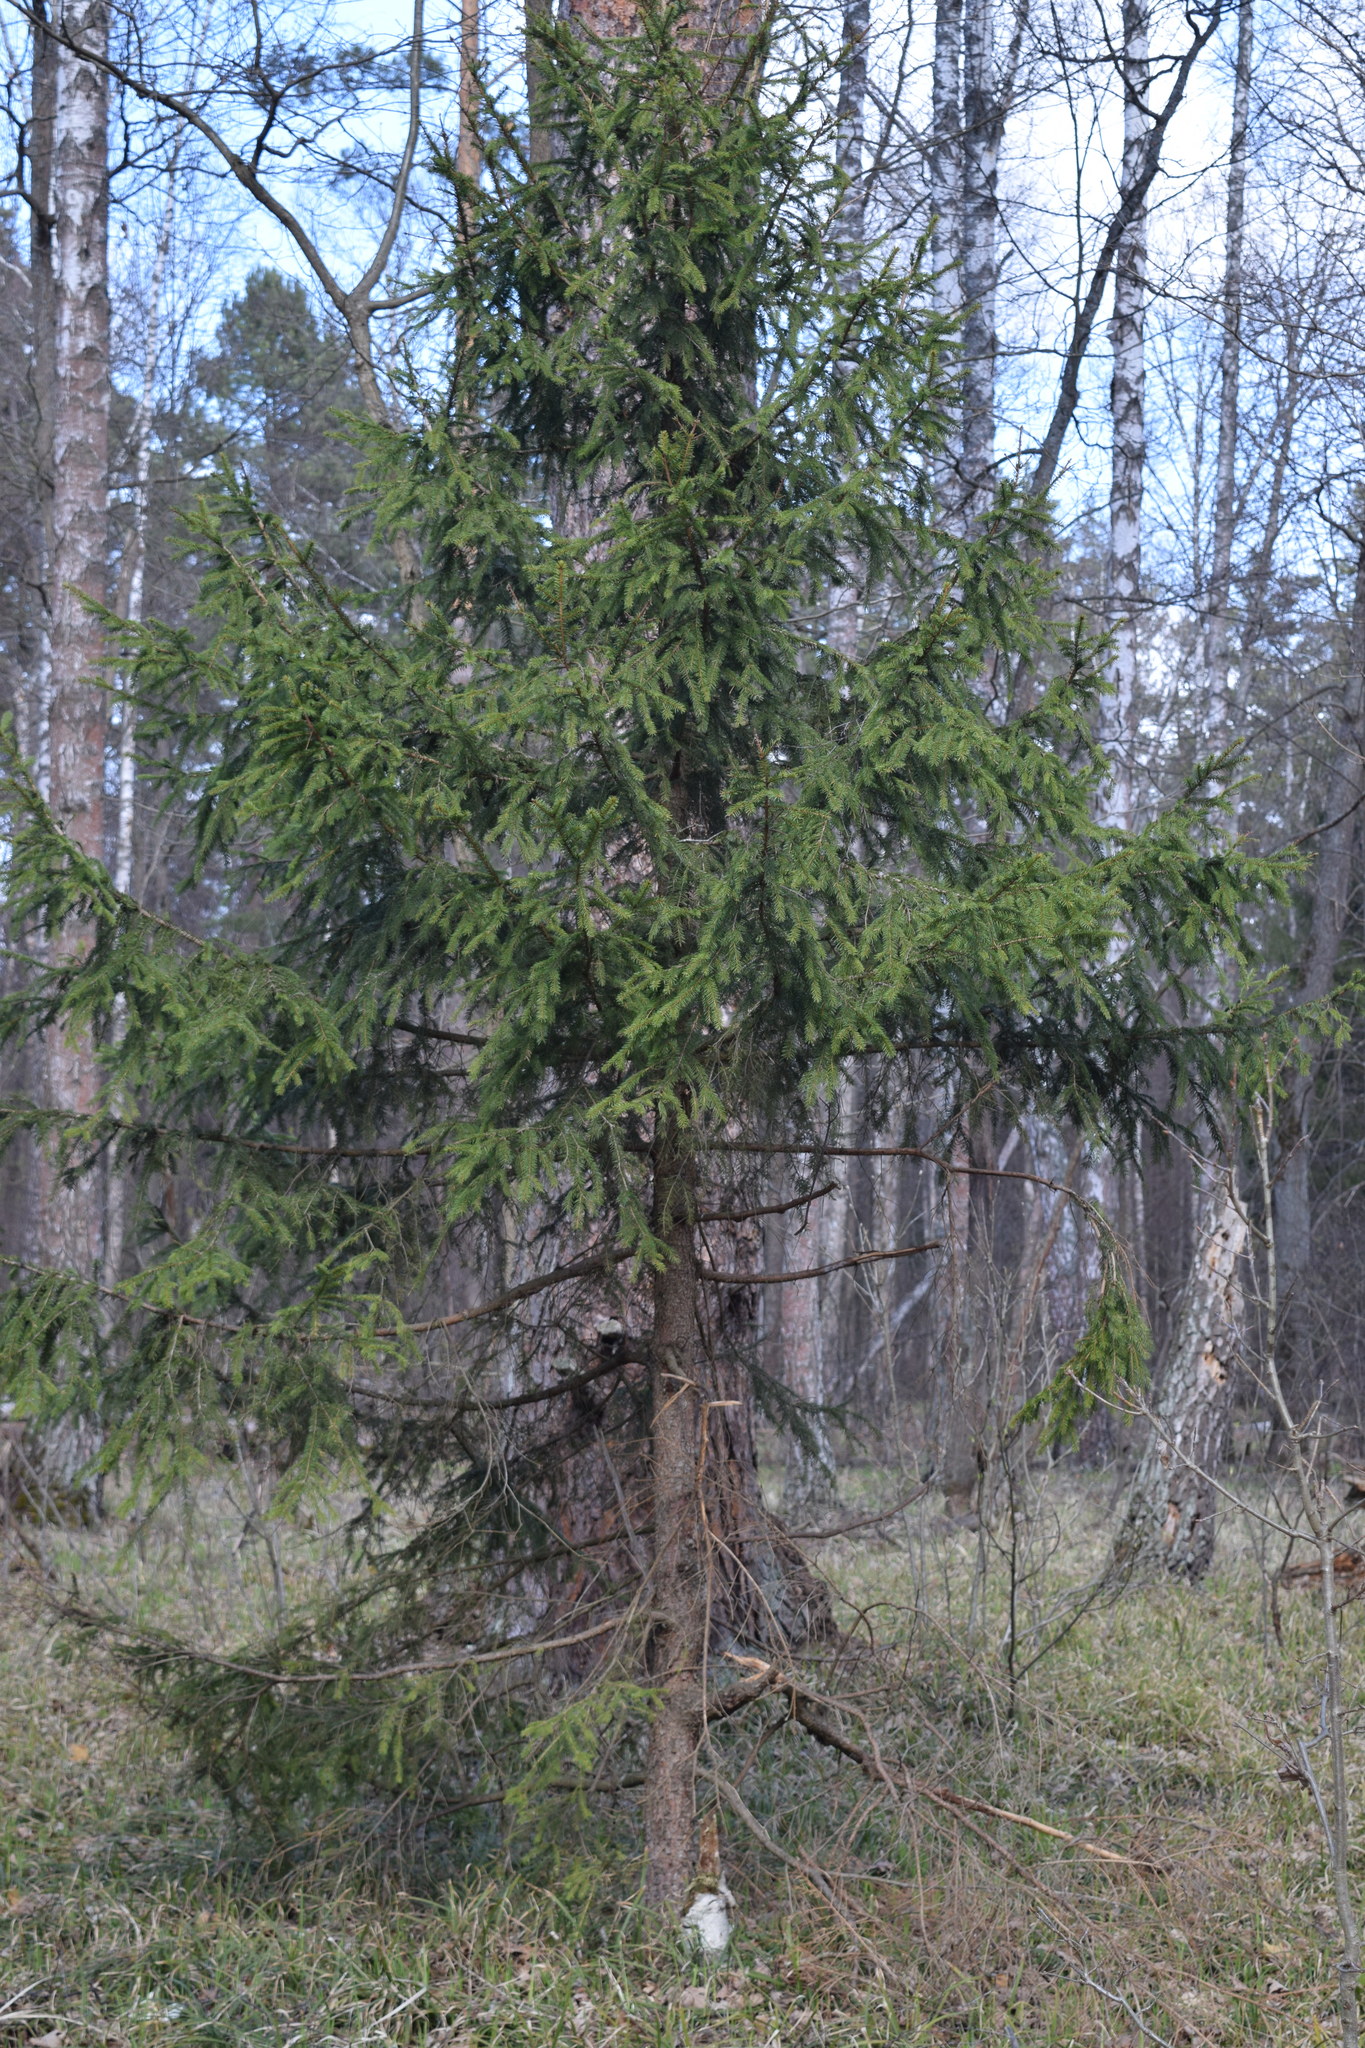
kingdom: Plantae
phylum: Tracheophyta
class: Pinopsida
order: Pinales
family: Pinaceae
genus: Picea
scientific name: Picea abies
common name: Norway spruce
